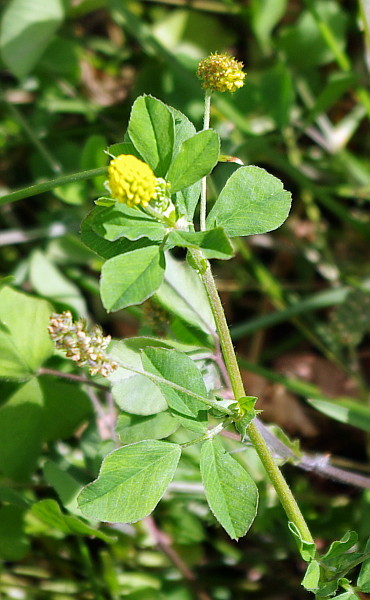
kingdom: Plantae
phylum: Tracheophyta
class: Magnoliopsida
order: Fabales
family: Fabaceae
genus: Medicago
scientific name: Medicago lupulina
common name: Black medick
